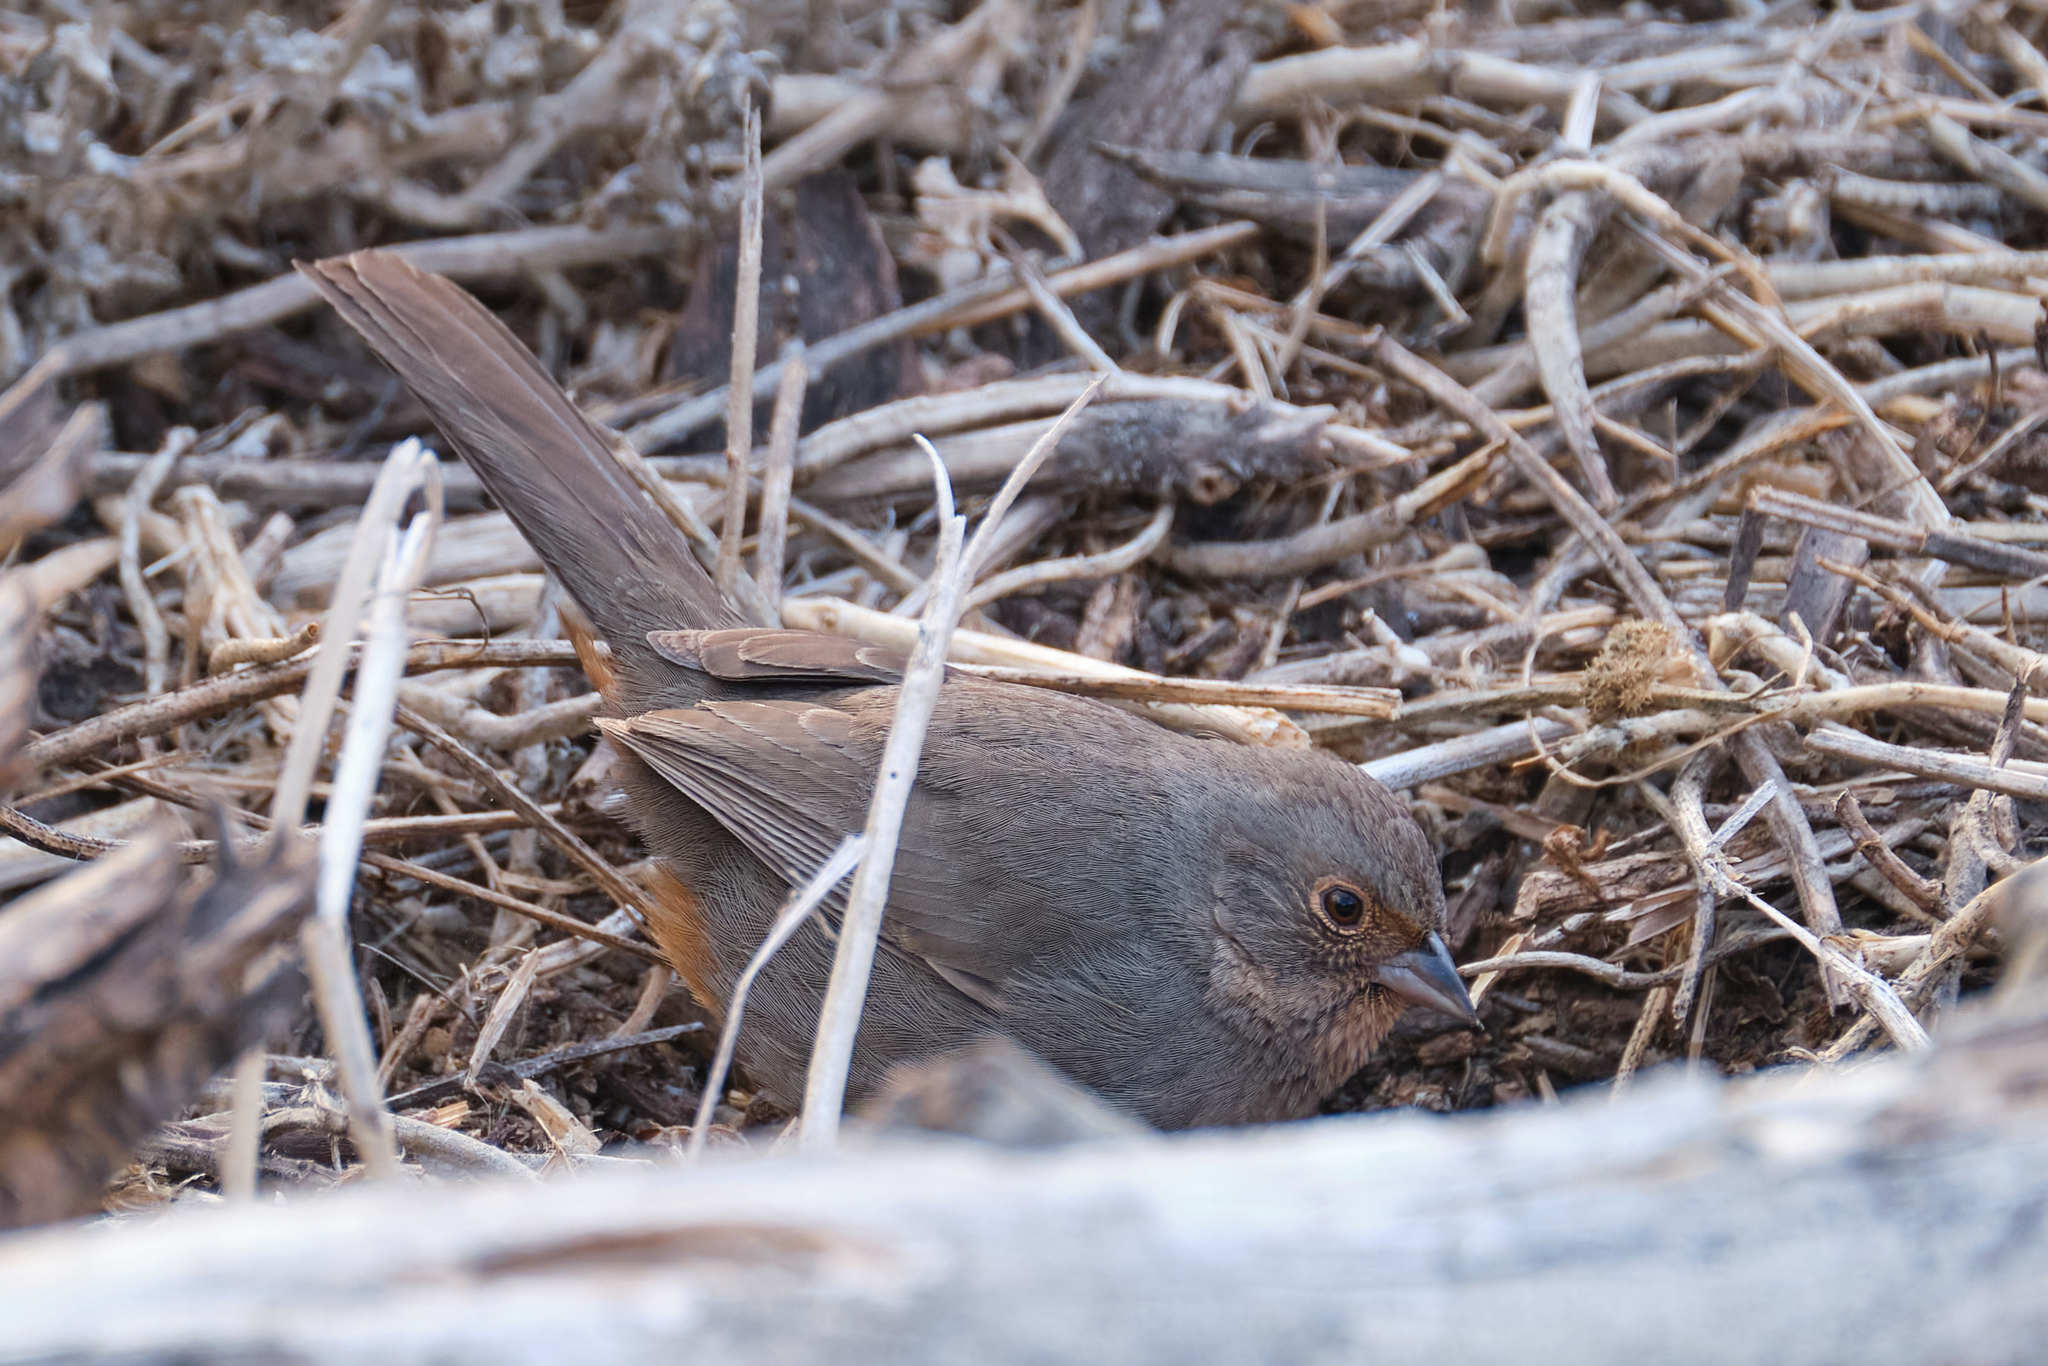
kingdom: Animalia
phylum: Chordata
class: Aves
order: Passeriformes
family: Passerellidae
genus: Melozone
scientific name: Melozone crissalis
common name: California towhee
